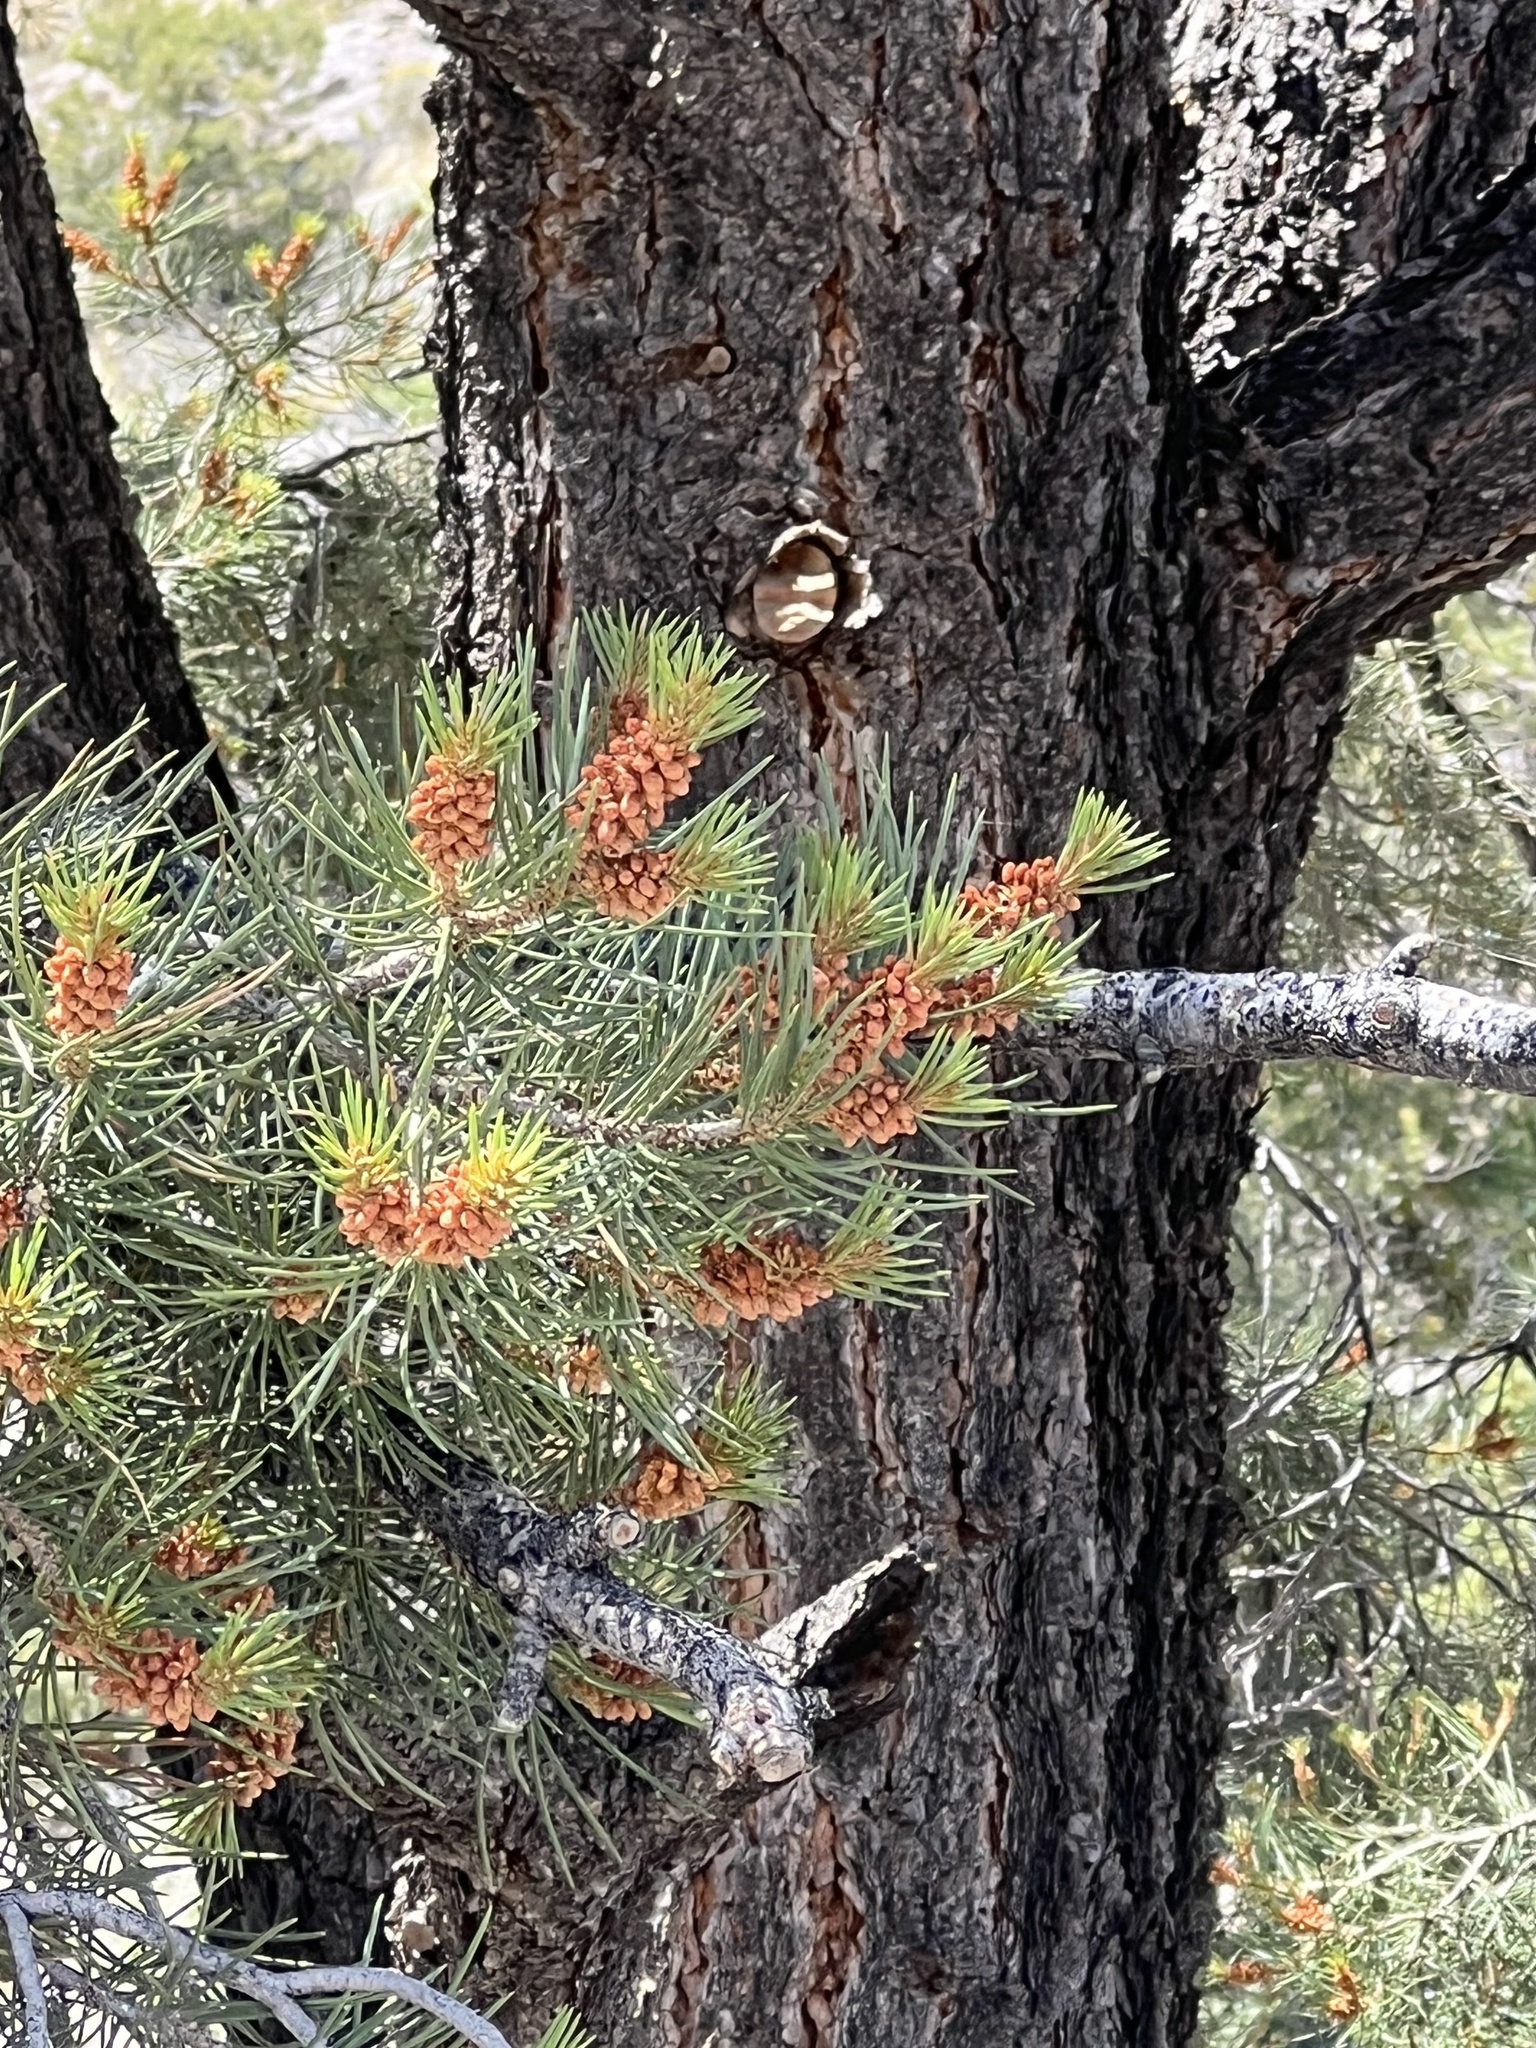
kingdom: Plantae
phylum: Tracheophyta
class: Pinopsida
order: Pinales
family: Pinaceae
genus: Pinus
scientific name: Pinus monophylla
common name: One-leaved nut pine
